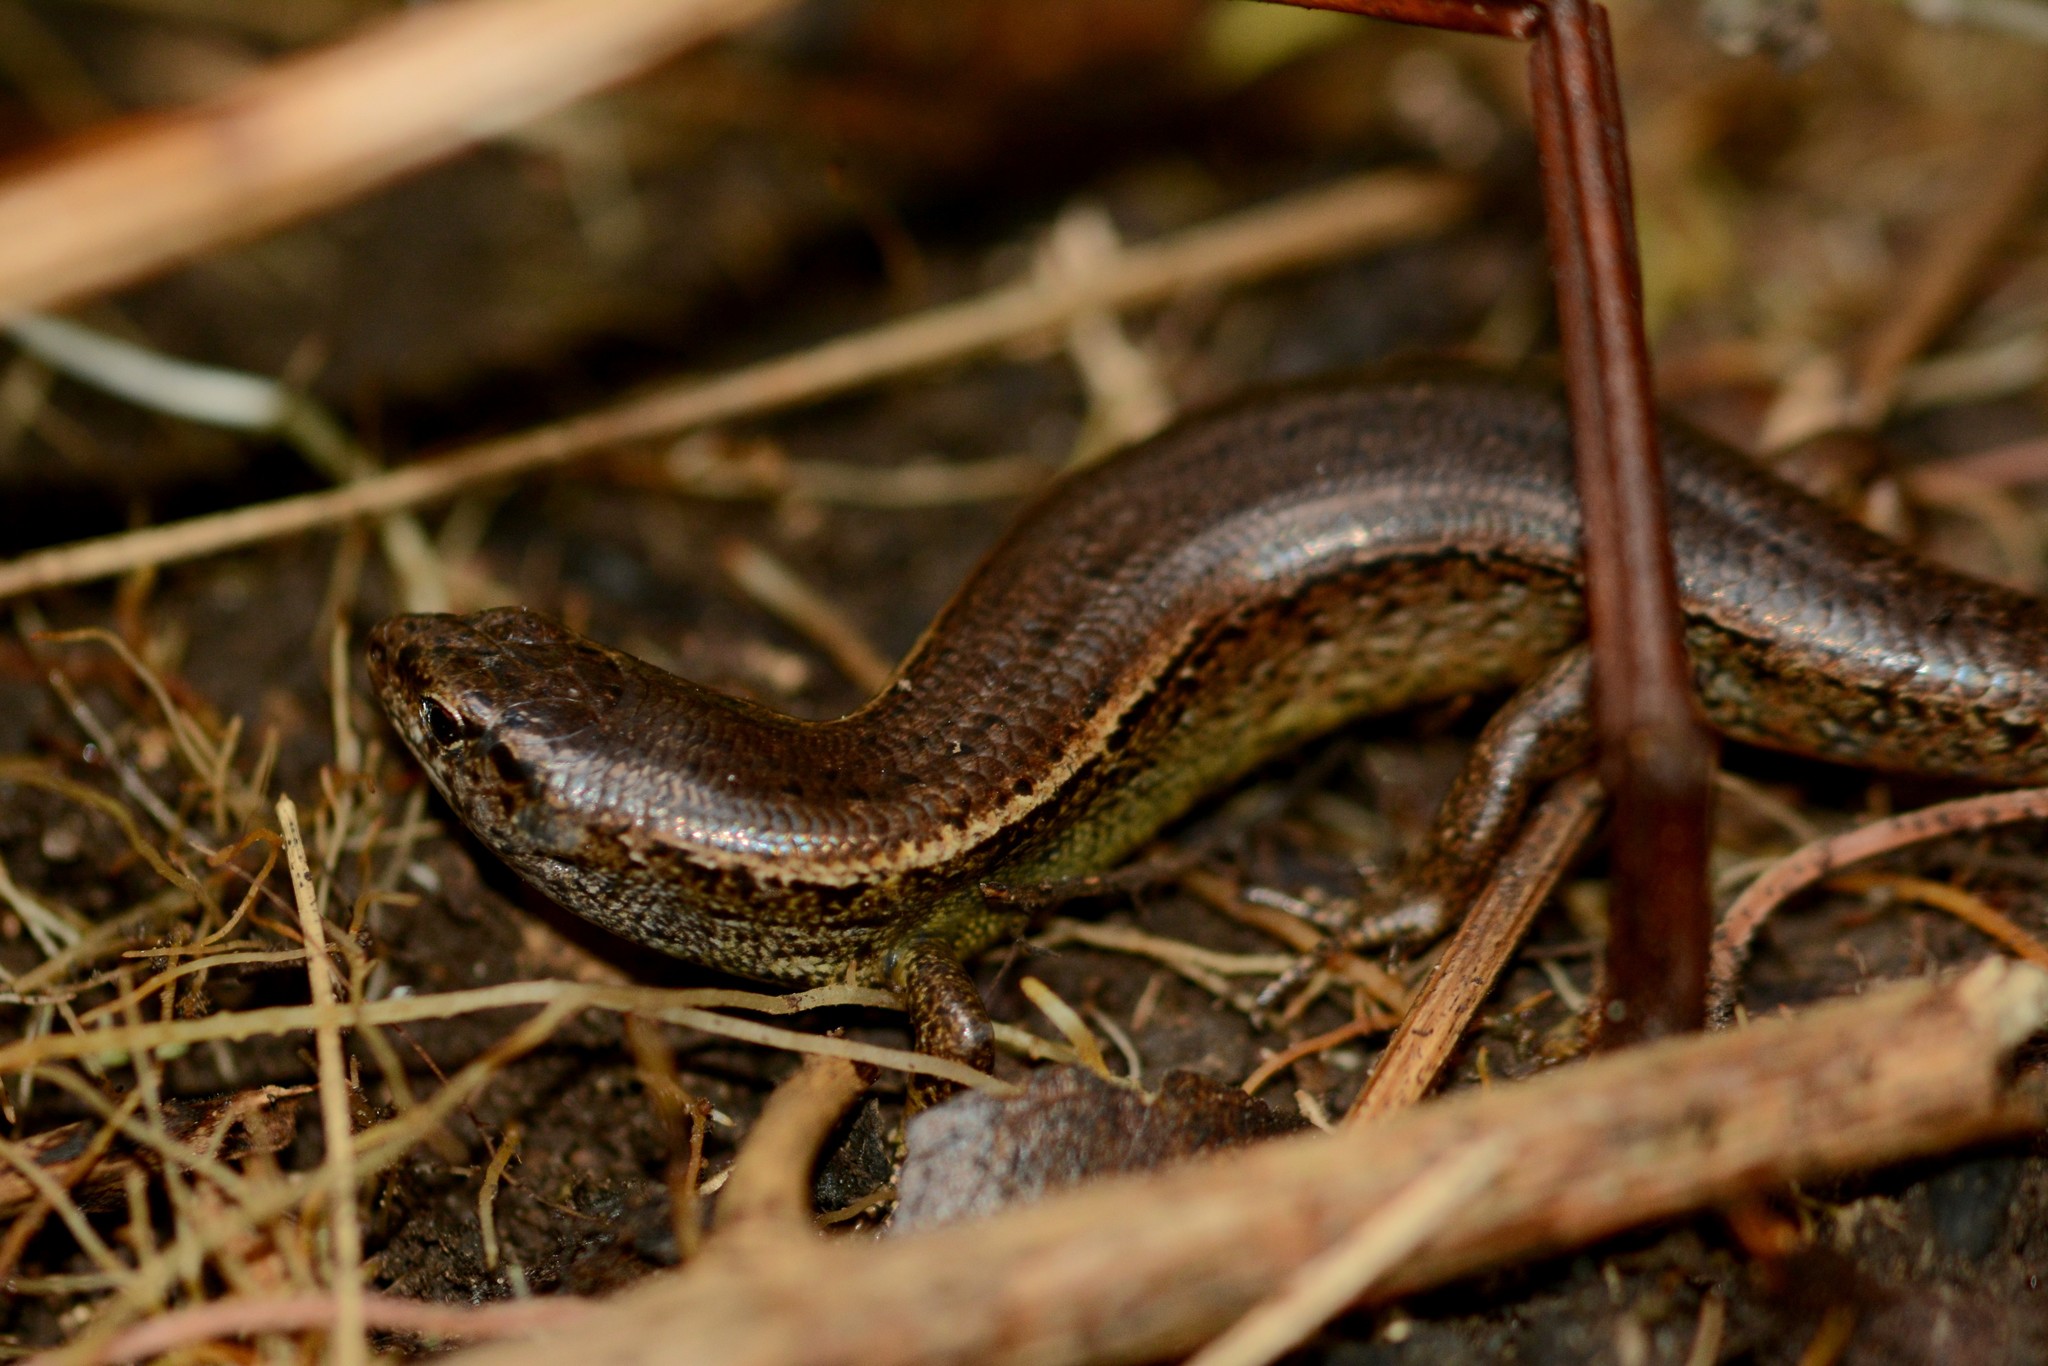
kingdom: Animalia
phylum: Chordata
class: Squamata
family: Scincidae
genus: Oligosoma
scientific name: Oligosoma aeneum
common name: Copper skink
